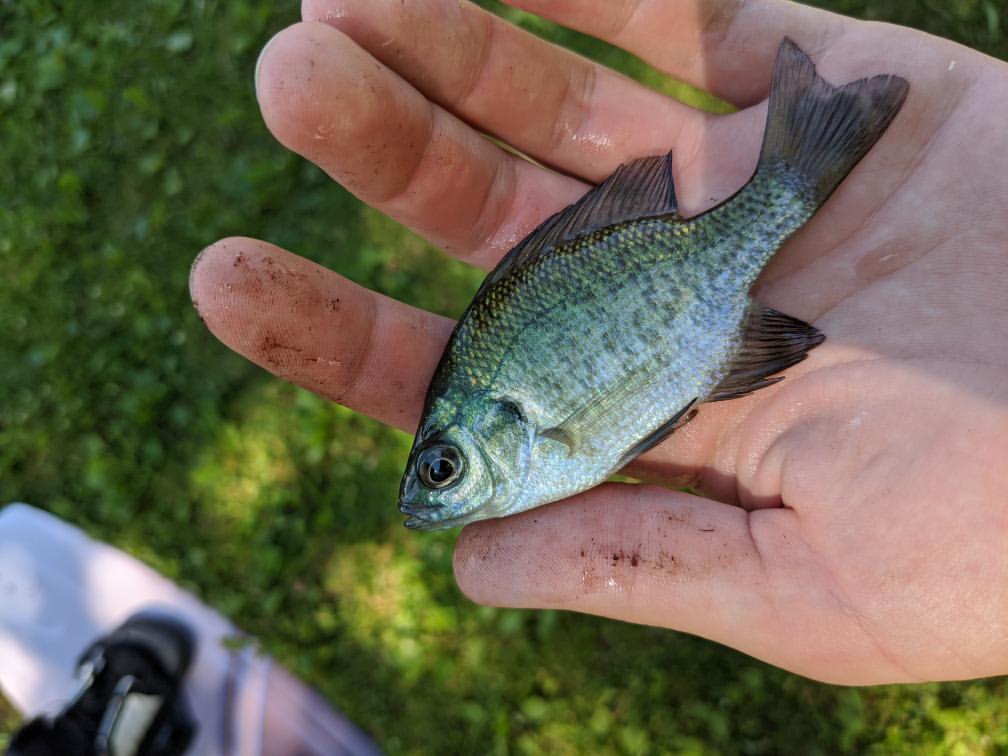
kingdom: Animalia
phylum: Chordata
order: Perciformes
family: Centrarchidae
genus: Lepomis
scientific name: Lepomis macrochirus
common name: Bluegill
